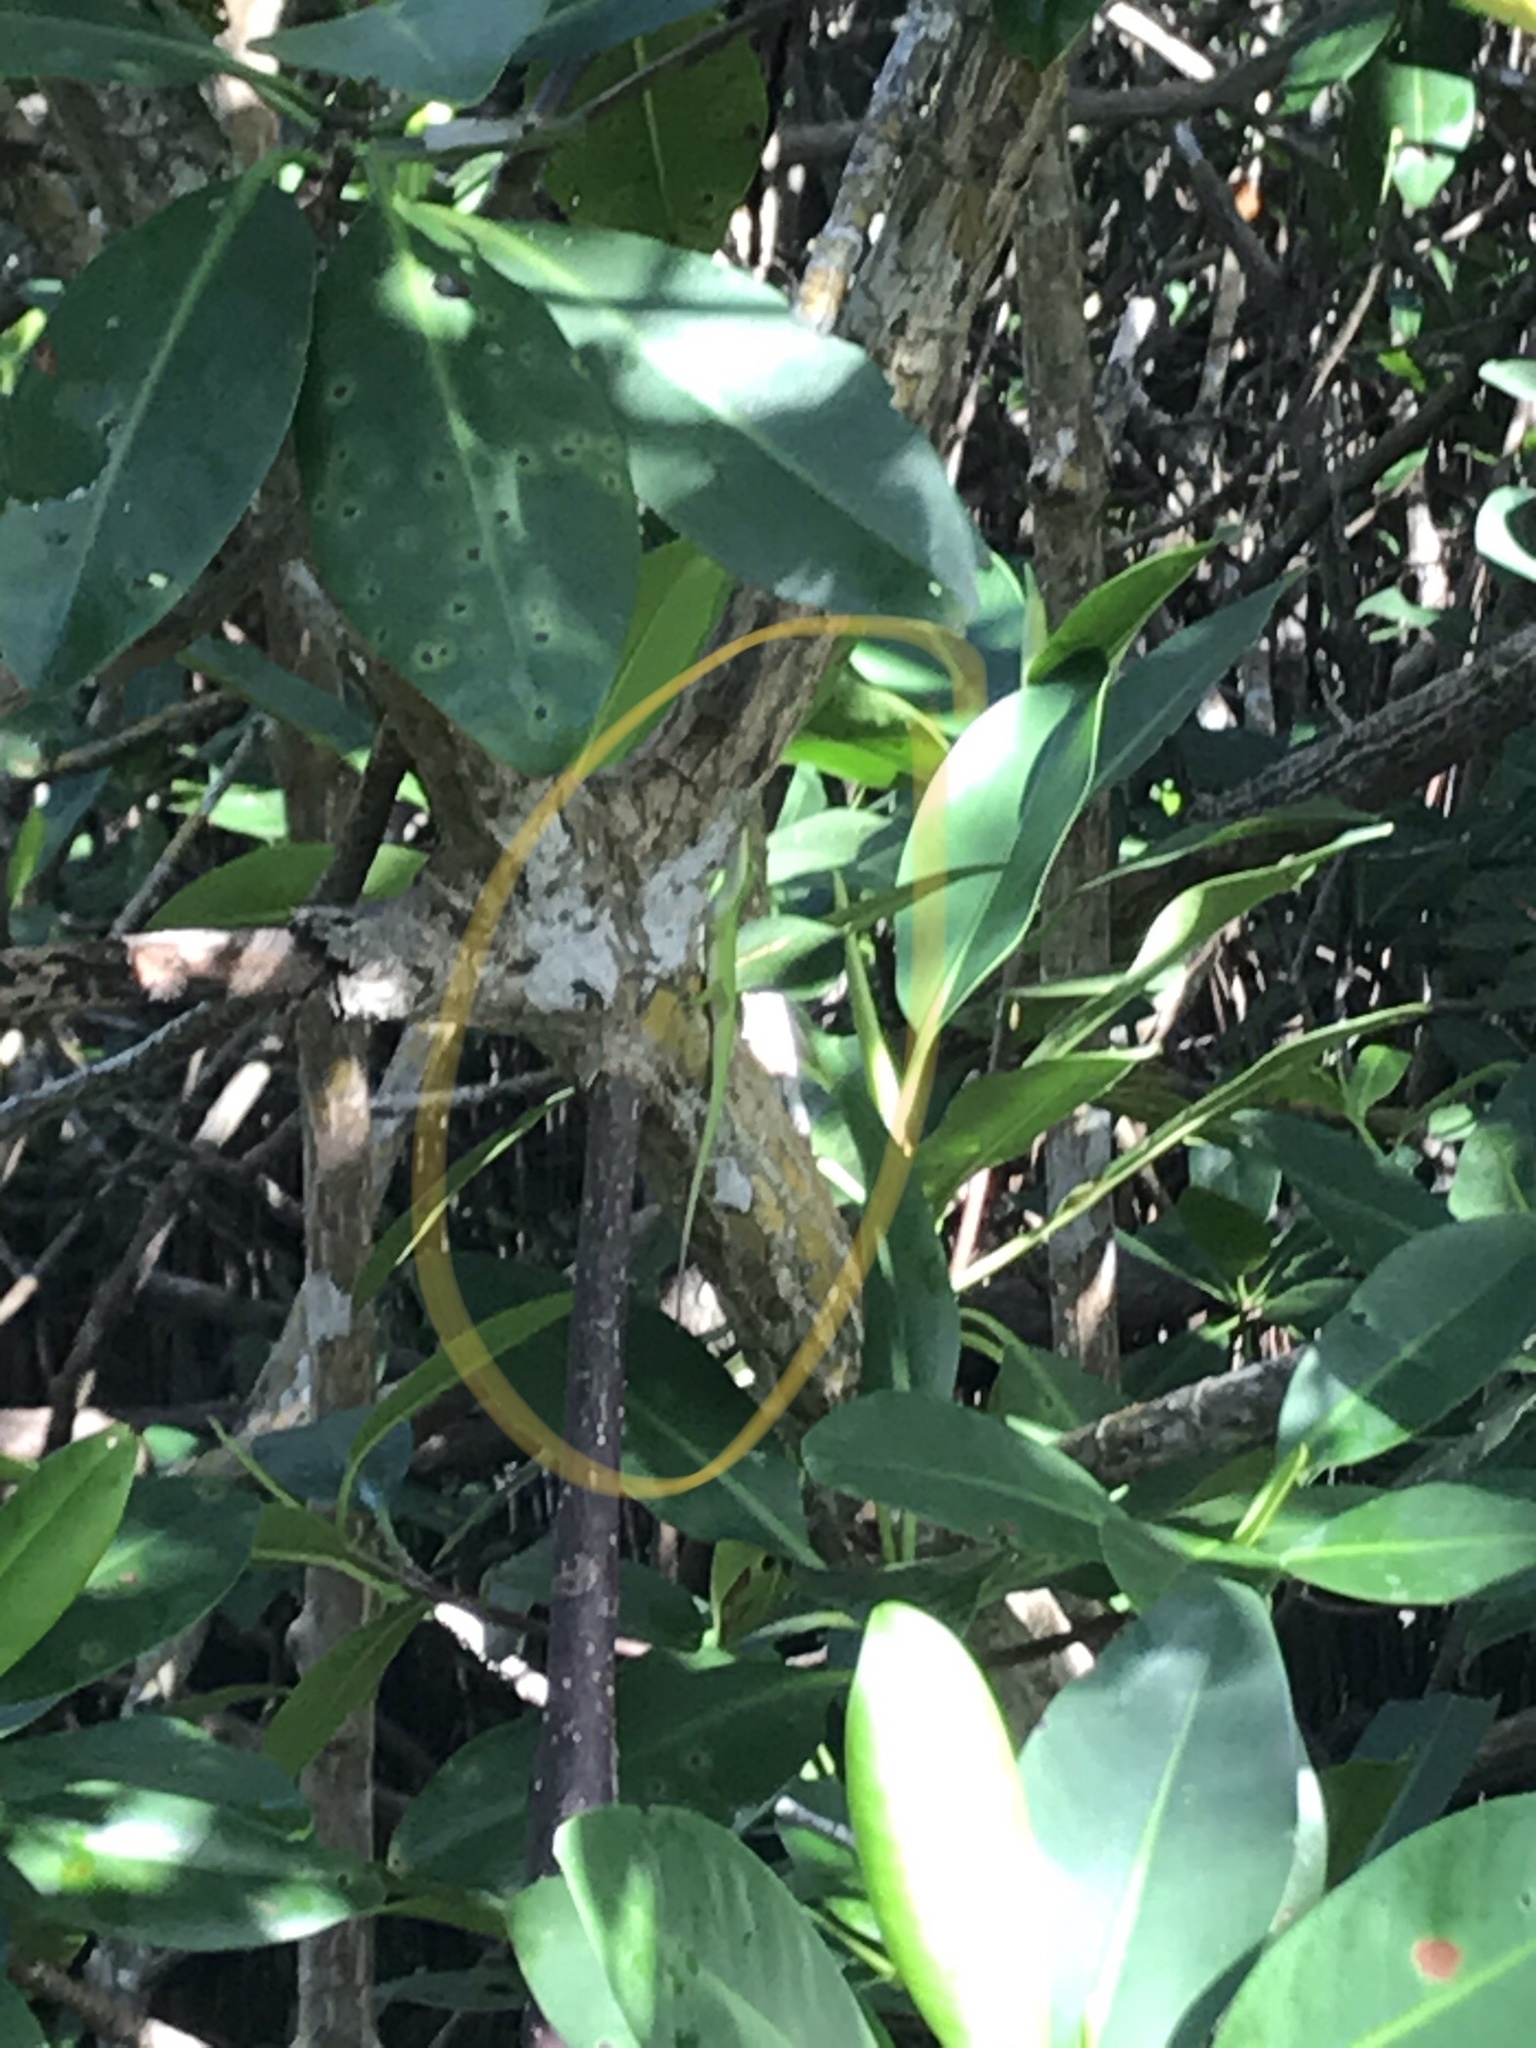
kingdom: Animalia
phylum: Chordata
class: Squamata
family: Dactyloidae
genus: Anolis
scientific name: Anolis carolinensis
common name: Green anole
